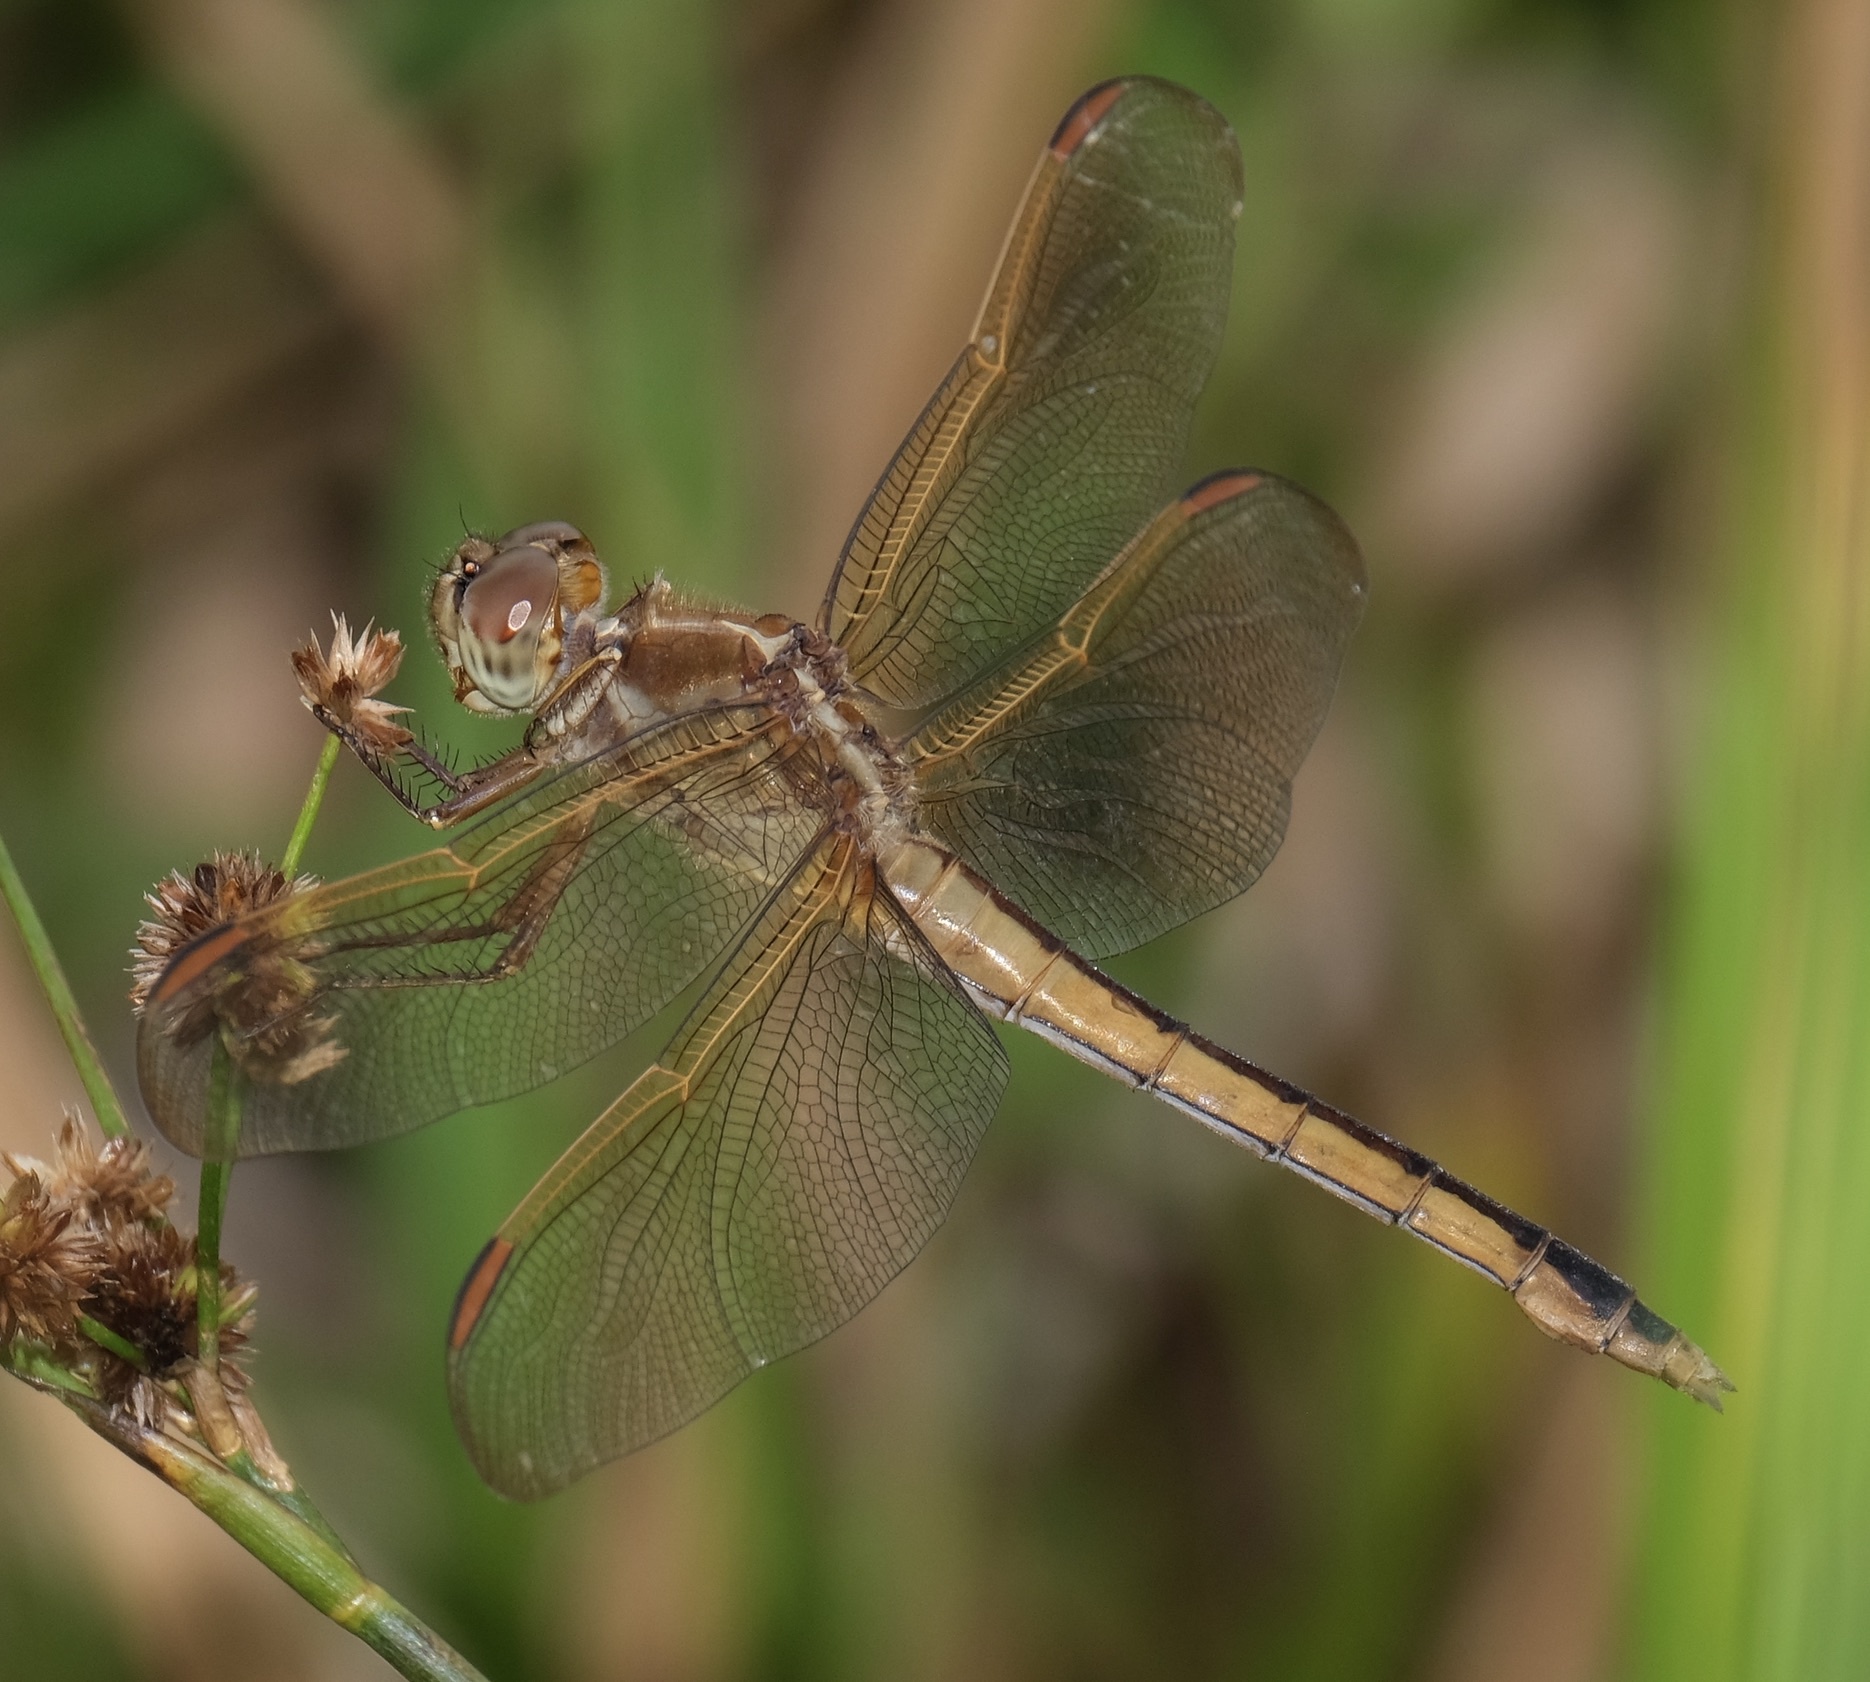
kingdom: Animalia
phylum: Arthropoda
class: Insecta
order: Odonata
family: Libellulidae
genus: Libellula
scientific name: Libellula needhami
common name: Needham's skimmer
